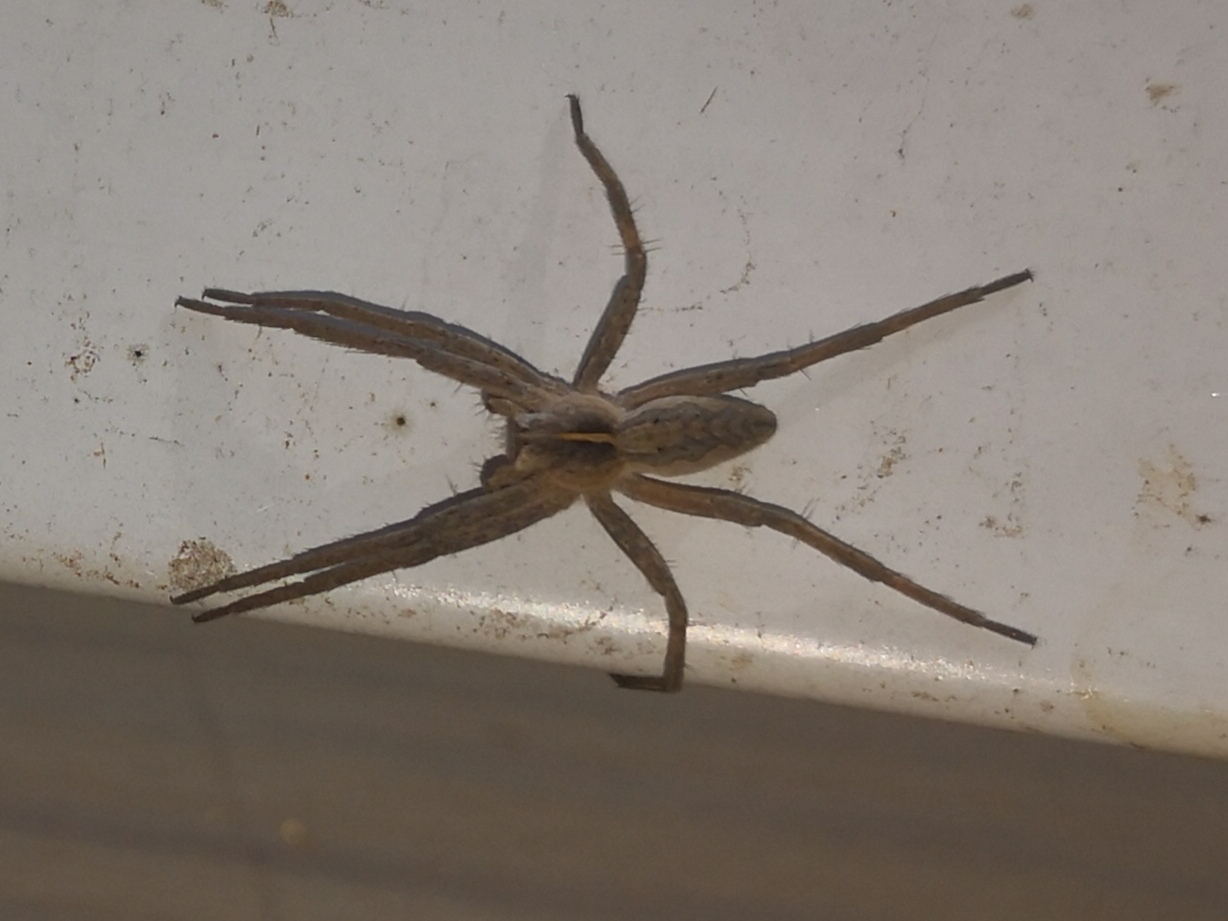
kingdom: Animalia
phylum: Arthropoda
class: Arachnida
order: Araneae
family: Pisauridae
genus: Pisaura
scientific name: Pisaura mirabilis
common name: Tent spider
